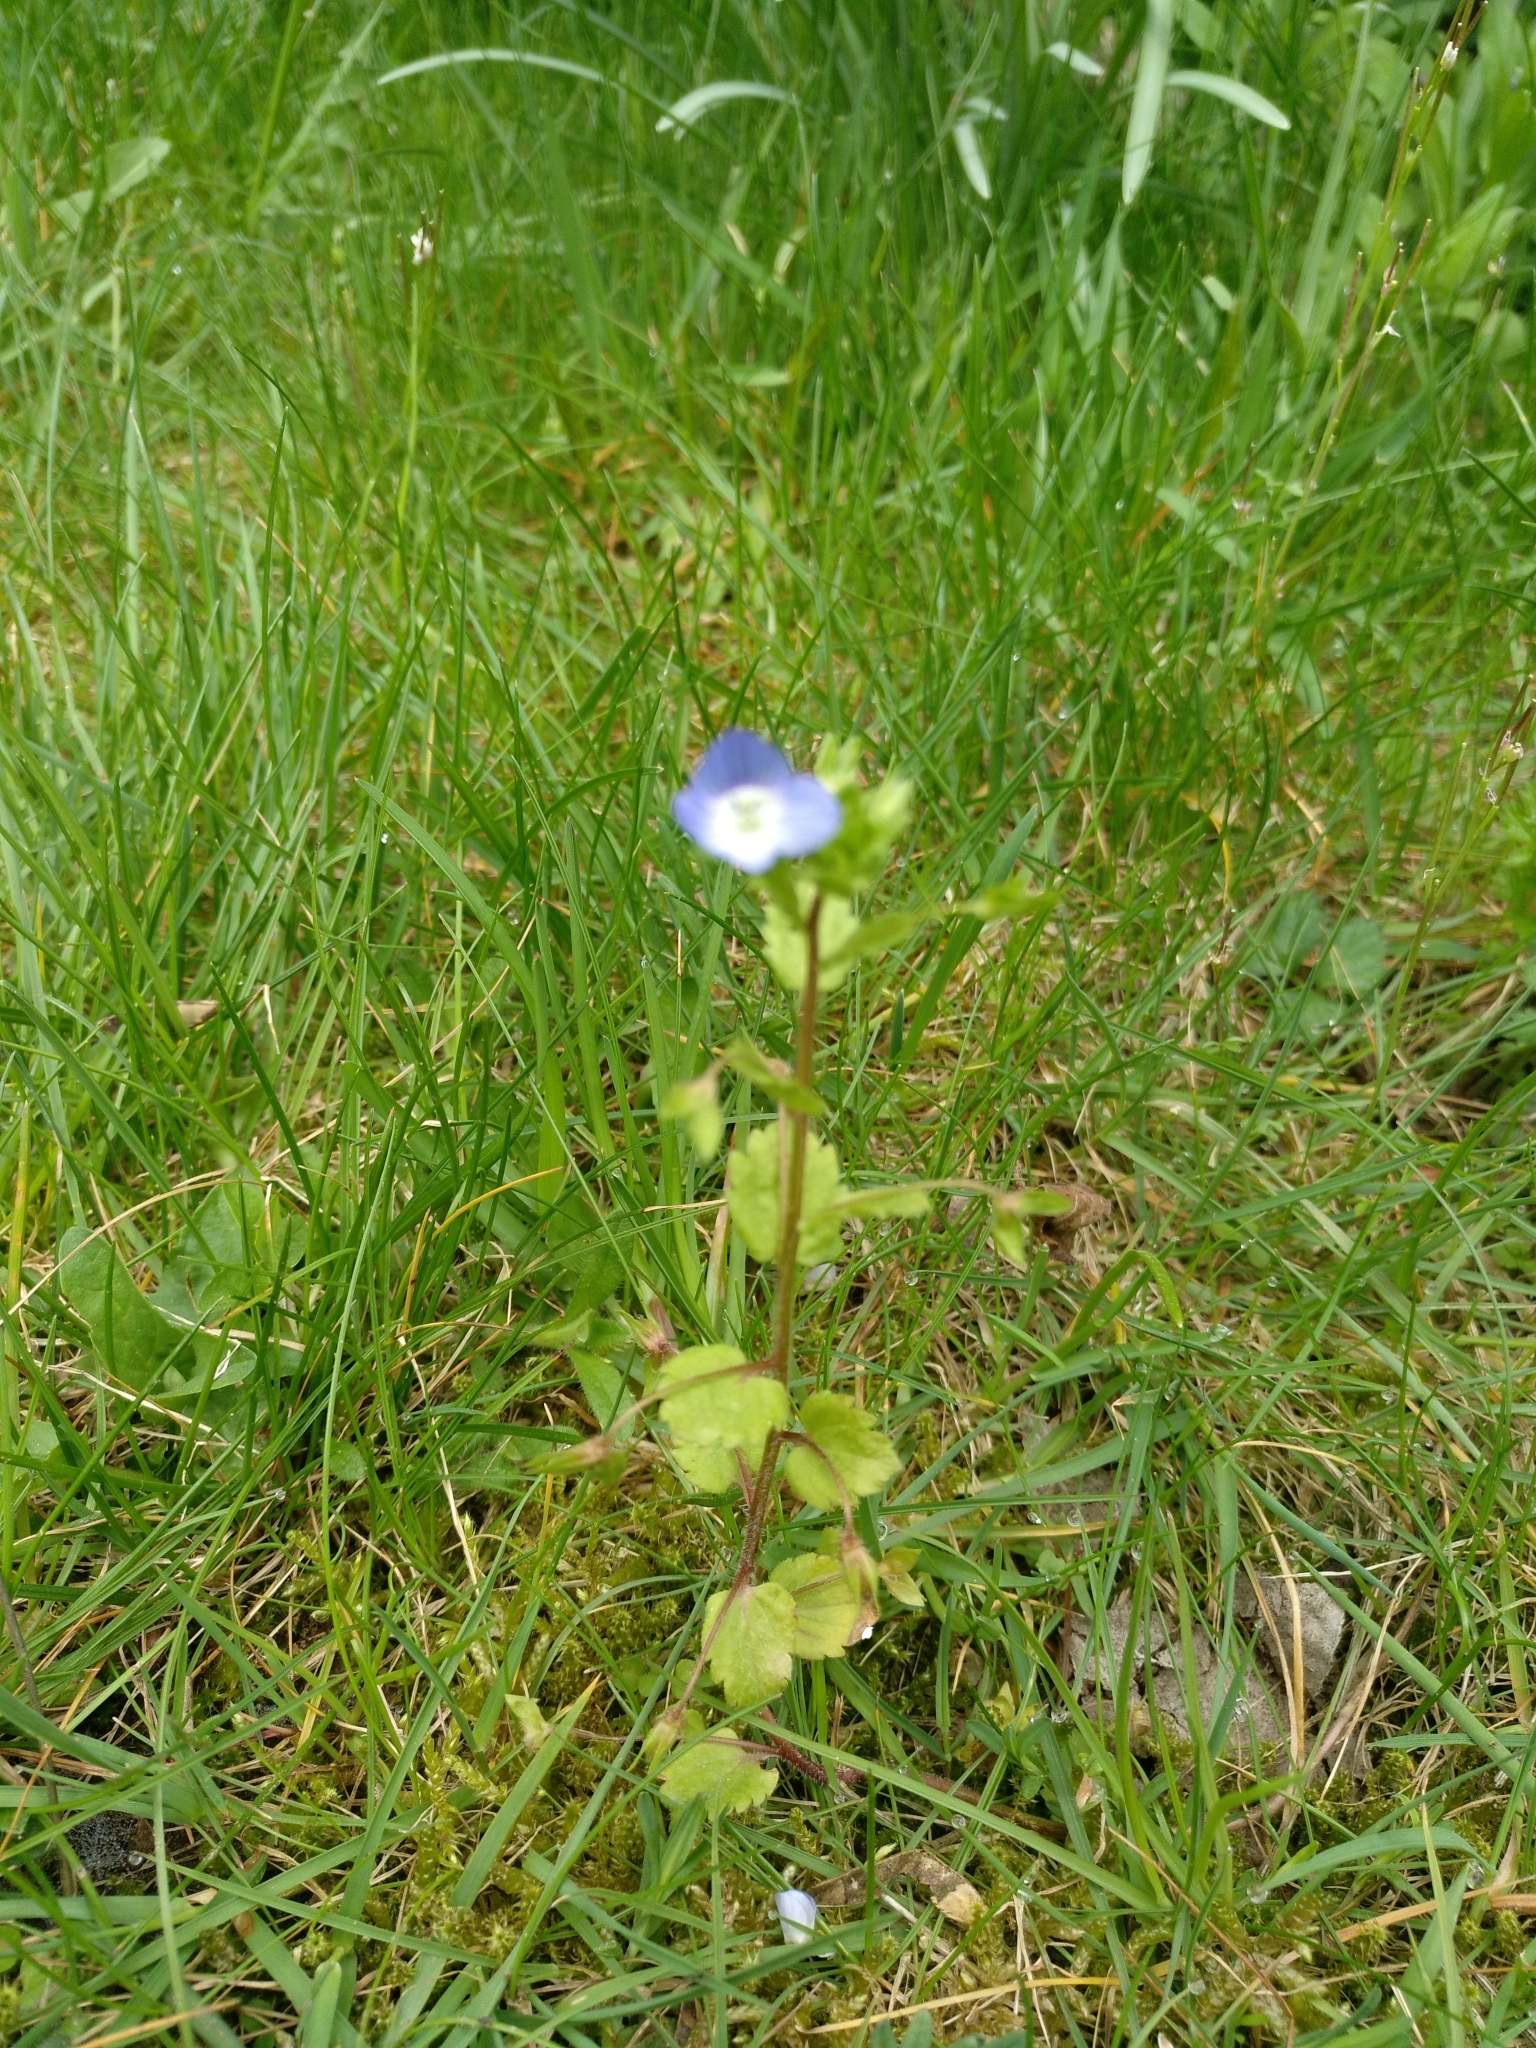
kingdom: Plantae
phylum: Tracheophyta
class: Magnoliopsida
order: Lamiales
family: Plantaginaceae
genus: Veronica
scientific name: Veronica persica
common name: Common field-speedwell
